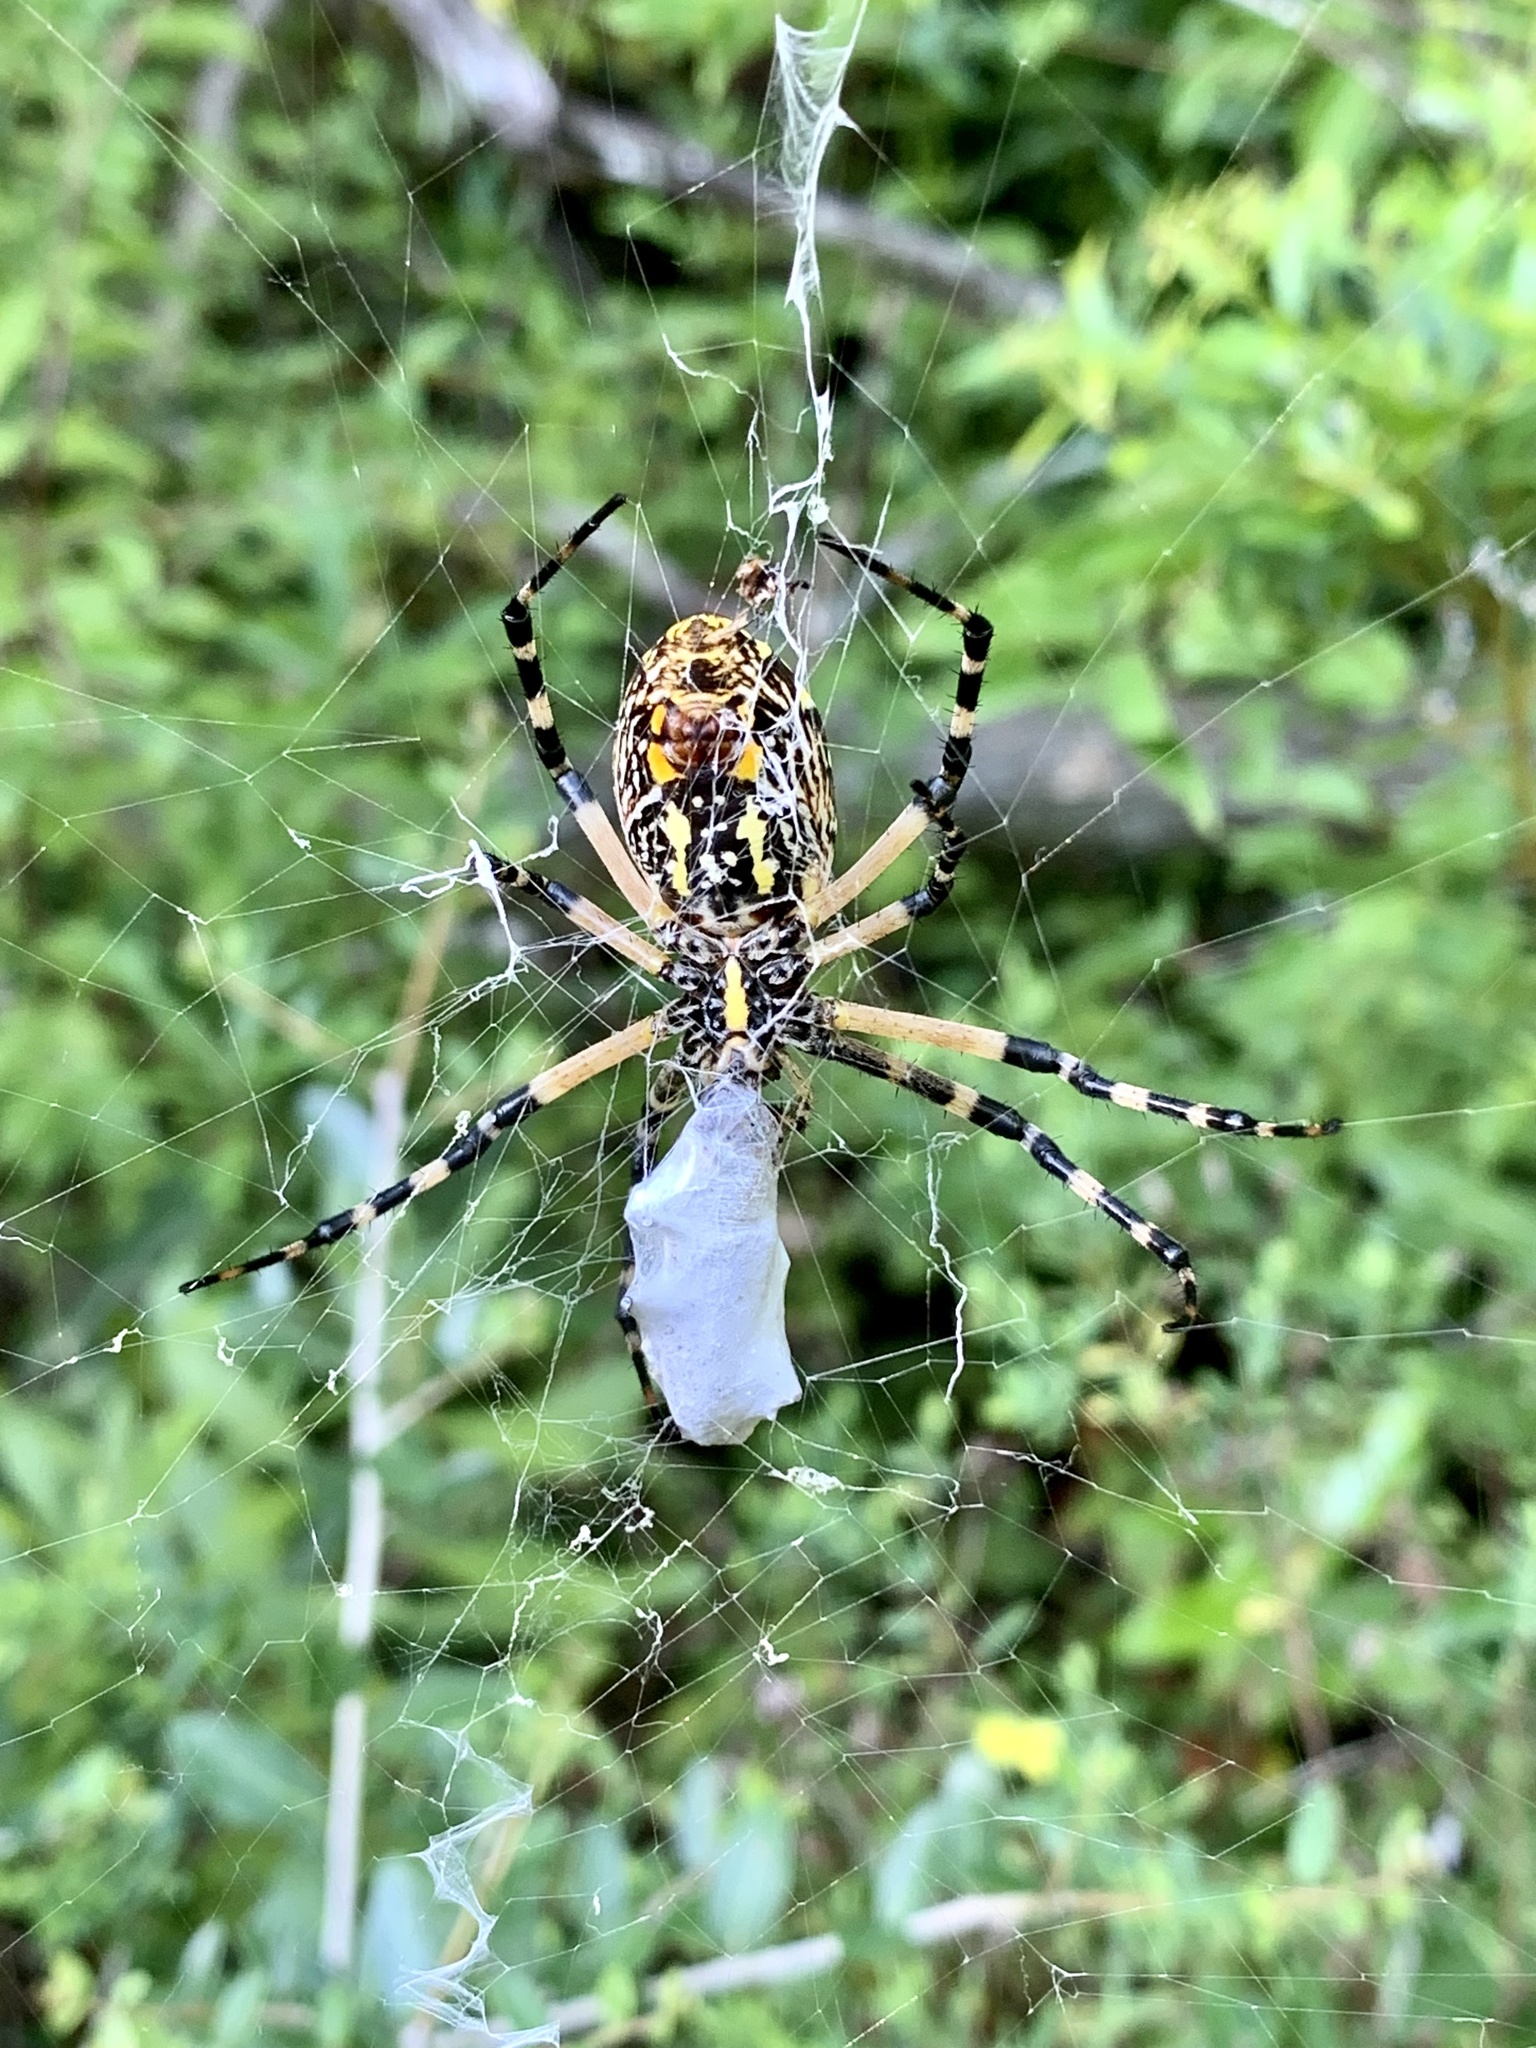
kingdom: Animalia
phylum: Arthropoda
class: Arachnida
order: Araneae
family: Araneidae
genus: Argiope
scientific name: Argiope aurantia
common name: Orb weavers
